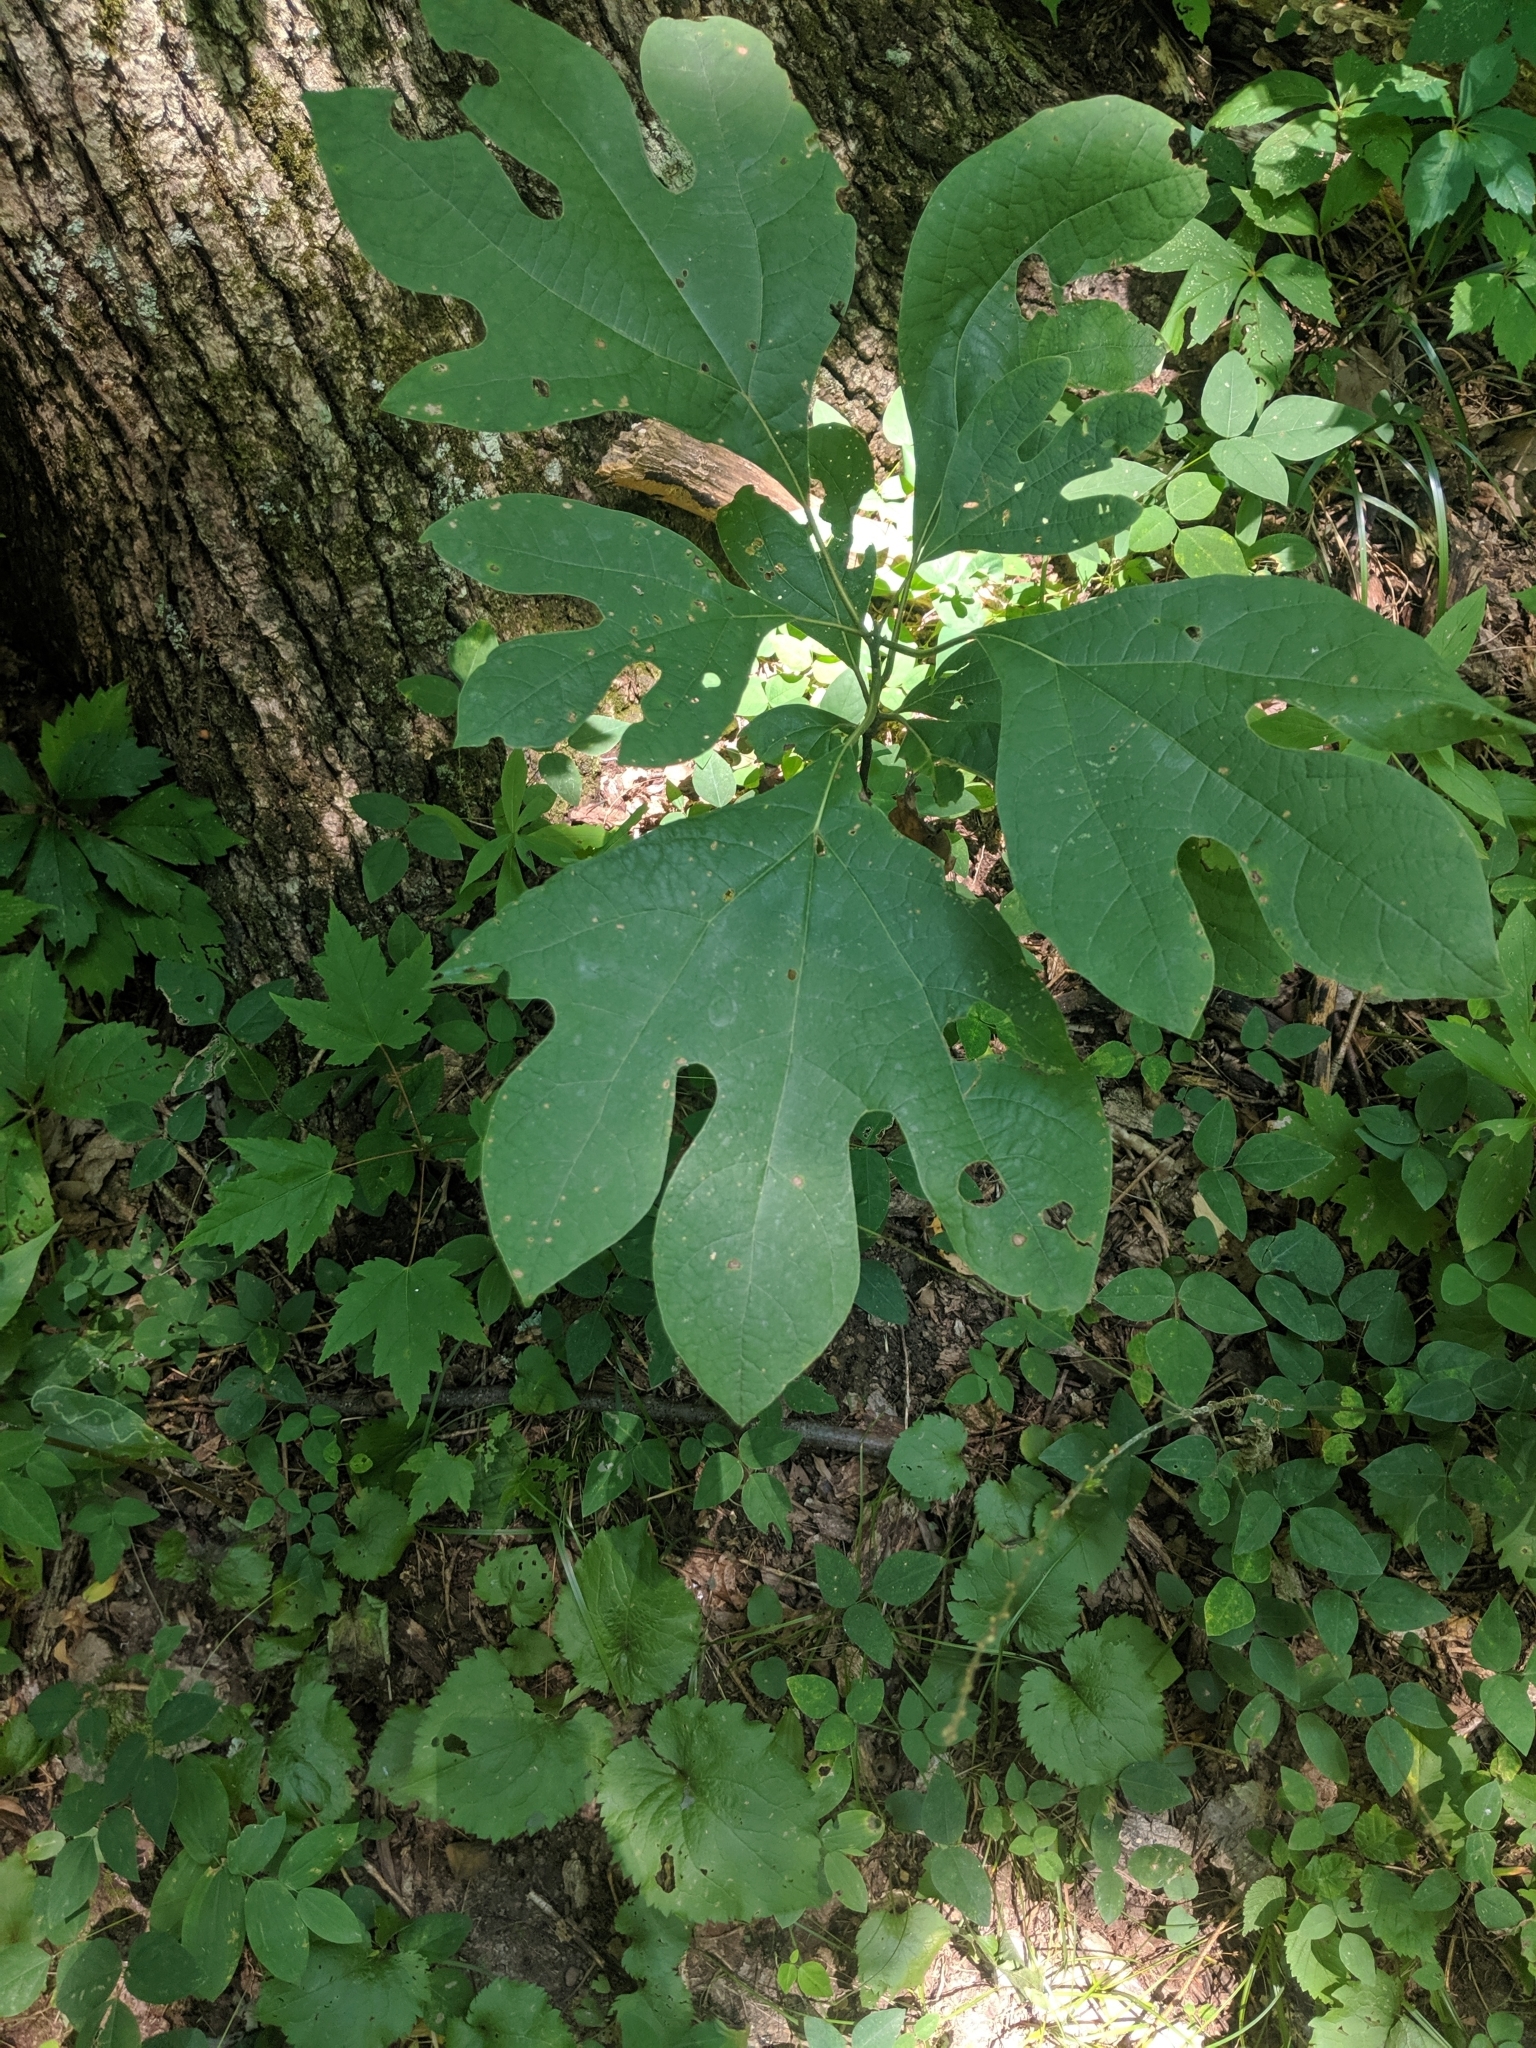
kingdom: Plantae
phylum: Tracheophyta
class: Magnoliopsida
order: Laurales
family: Lauraceae
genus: Sassafras
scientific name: Sassafras albidum
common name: Sassafras
